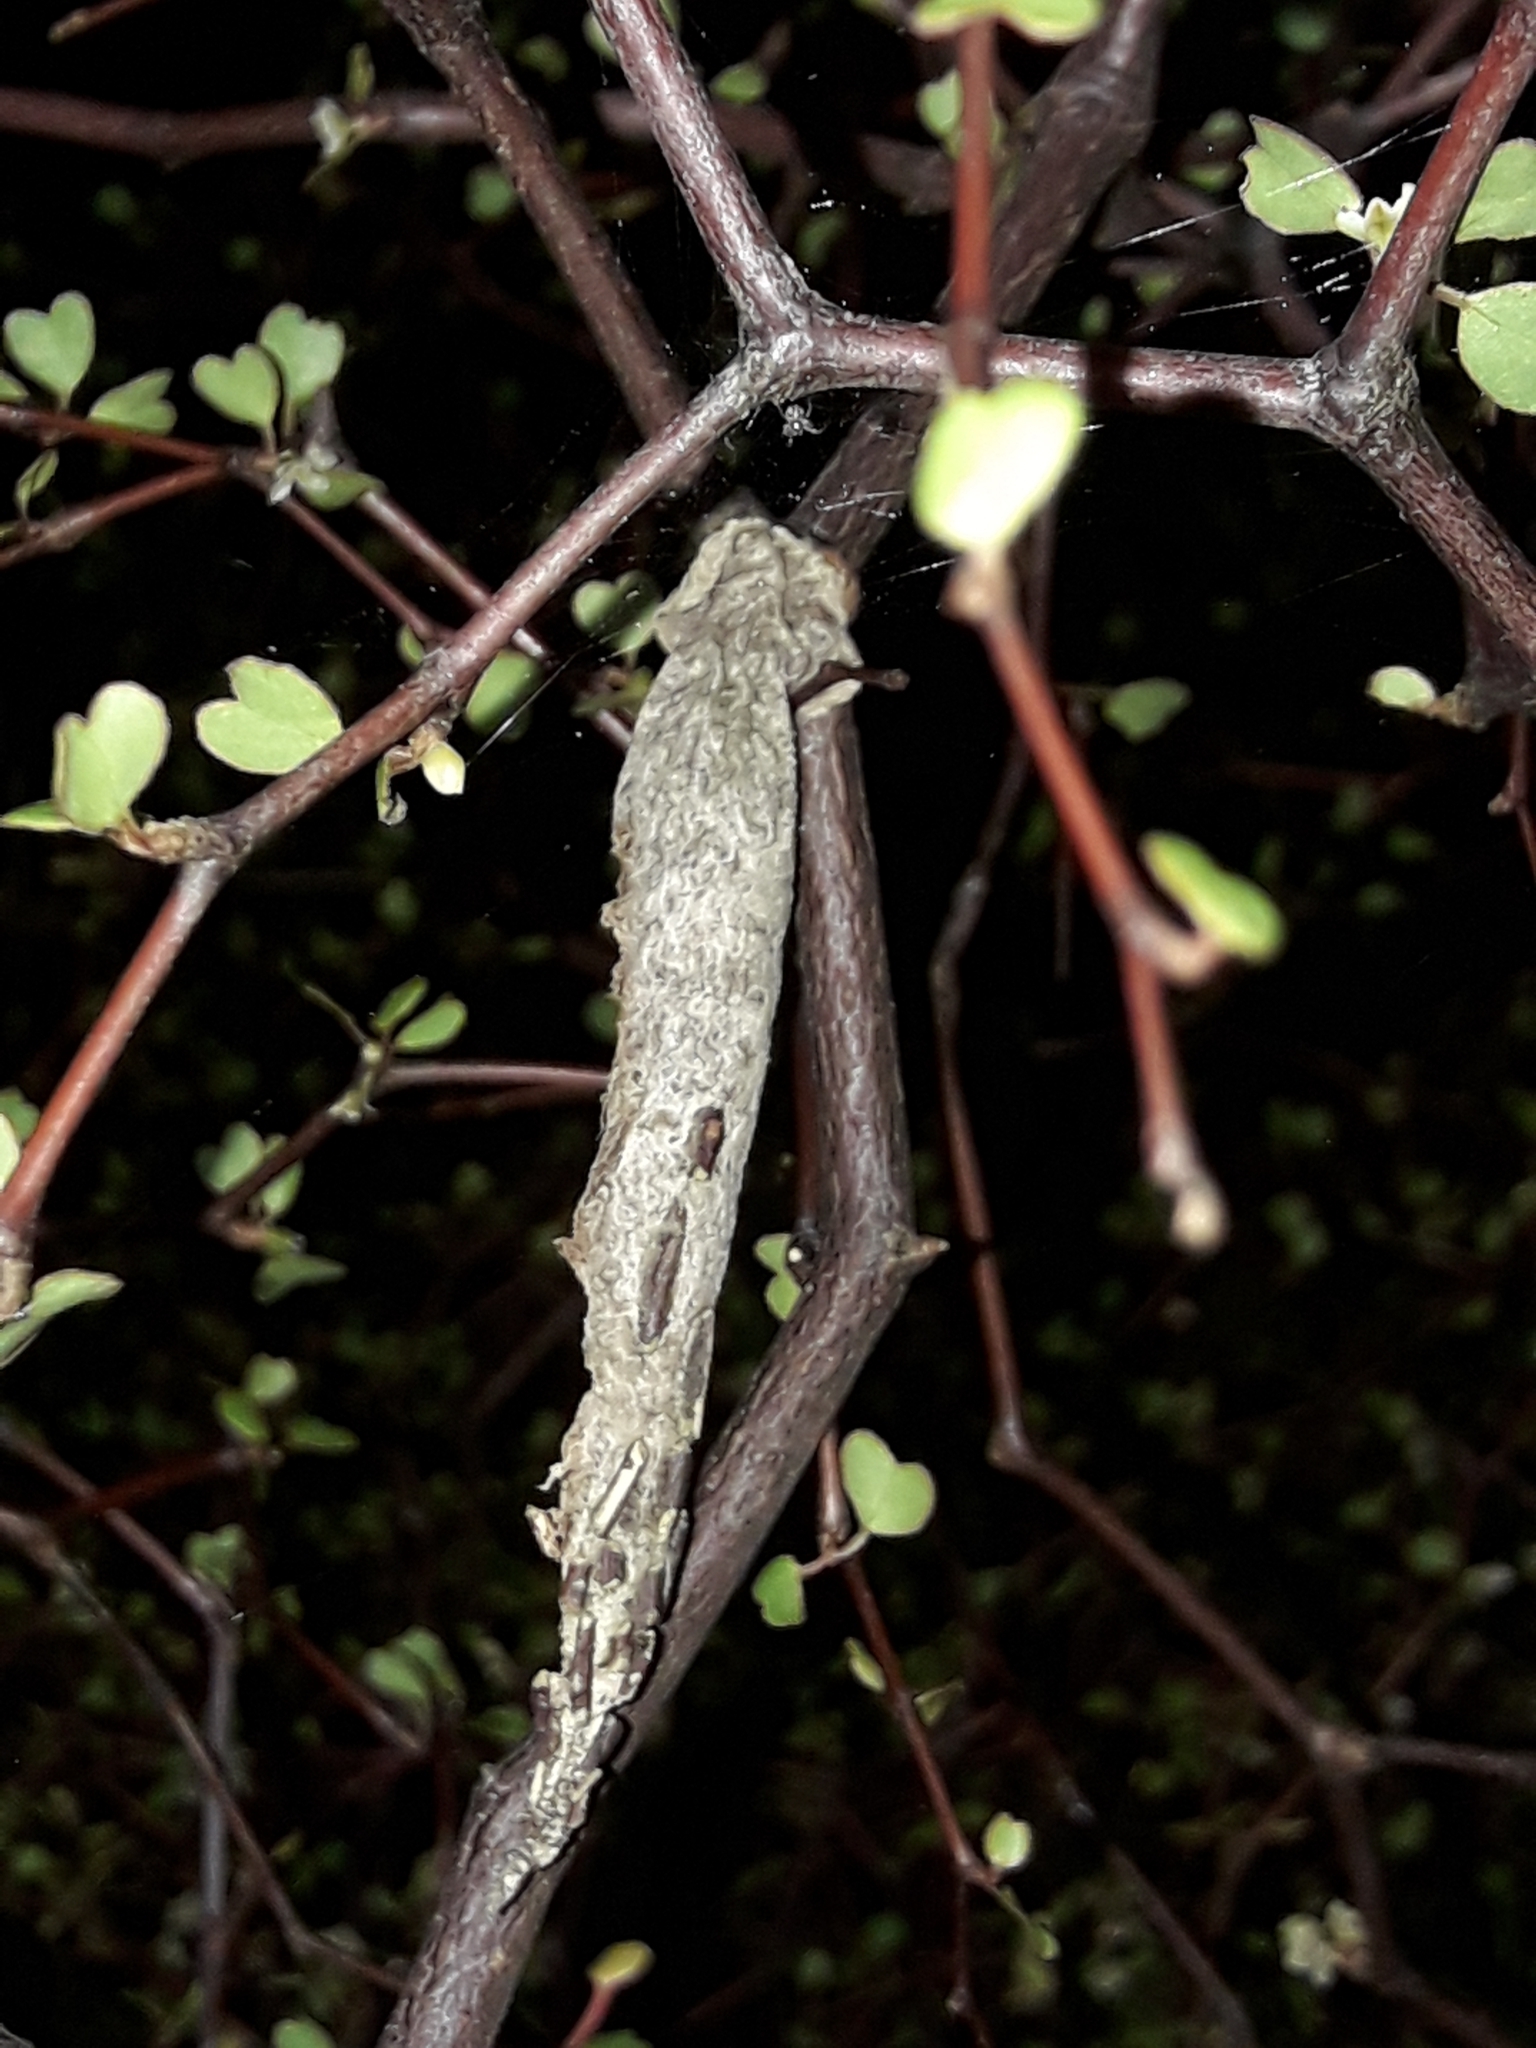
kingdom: Animalia
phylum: Arthropoda
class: Insecta
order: Lepidoptera
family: Psychidae
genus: Liothula
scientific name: Liothula omnivora
